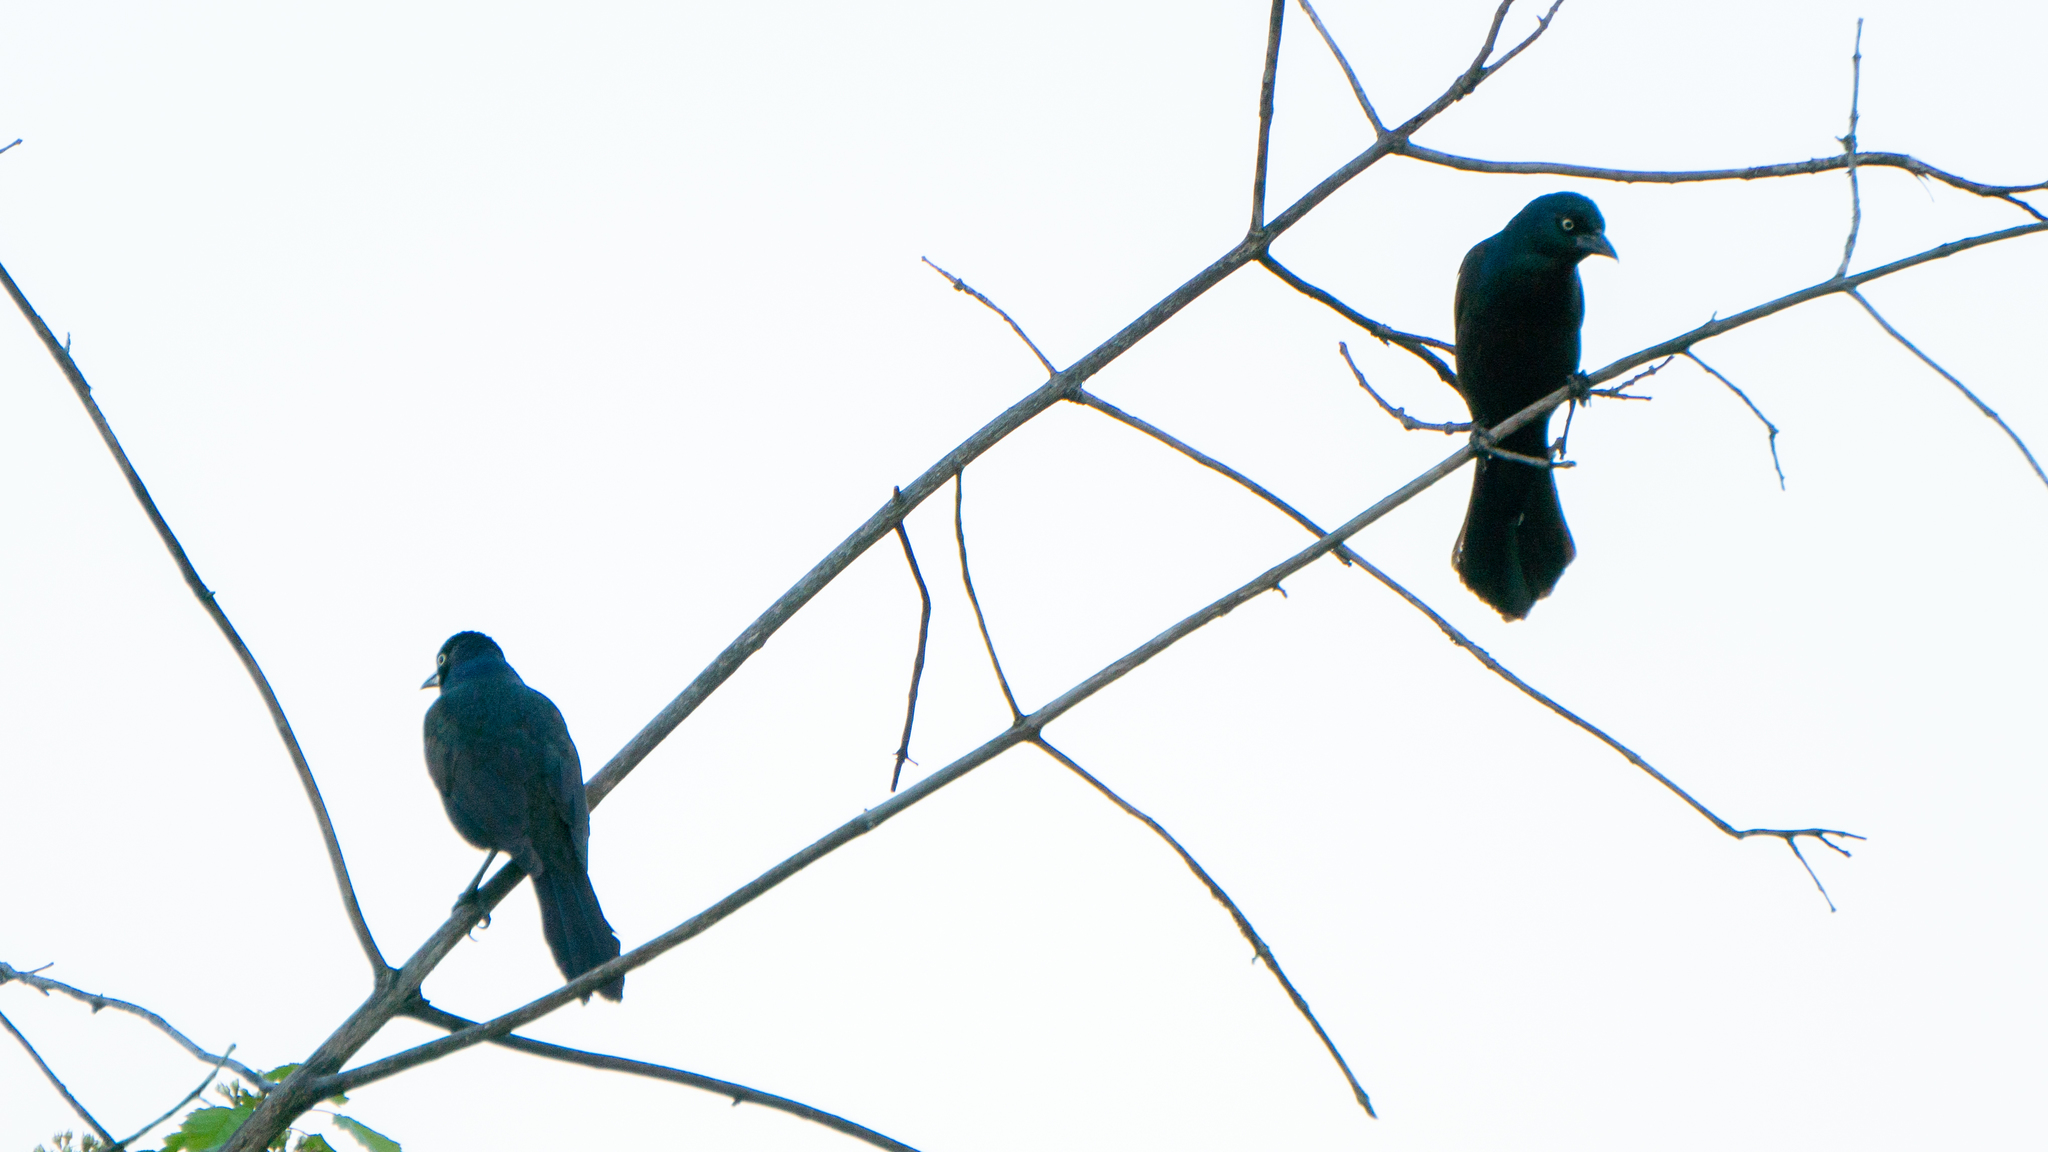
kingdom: Animalia
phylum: Chordata
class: Aves
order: Passeriformes
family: Icteridae
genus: Quiscalus
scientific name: Quiscalus quiscula
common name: Common grackle
